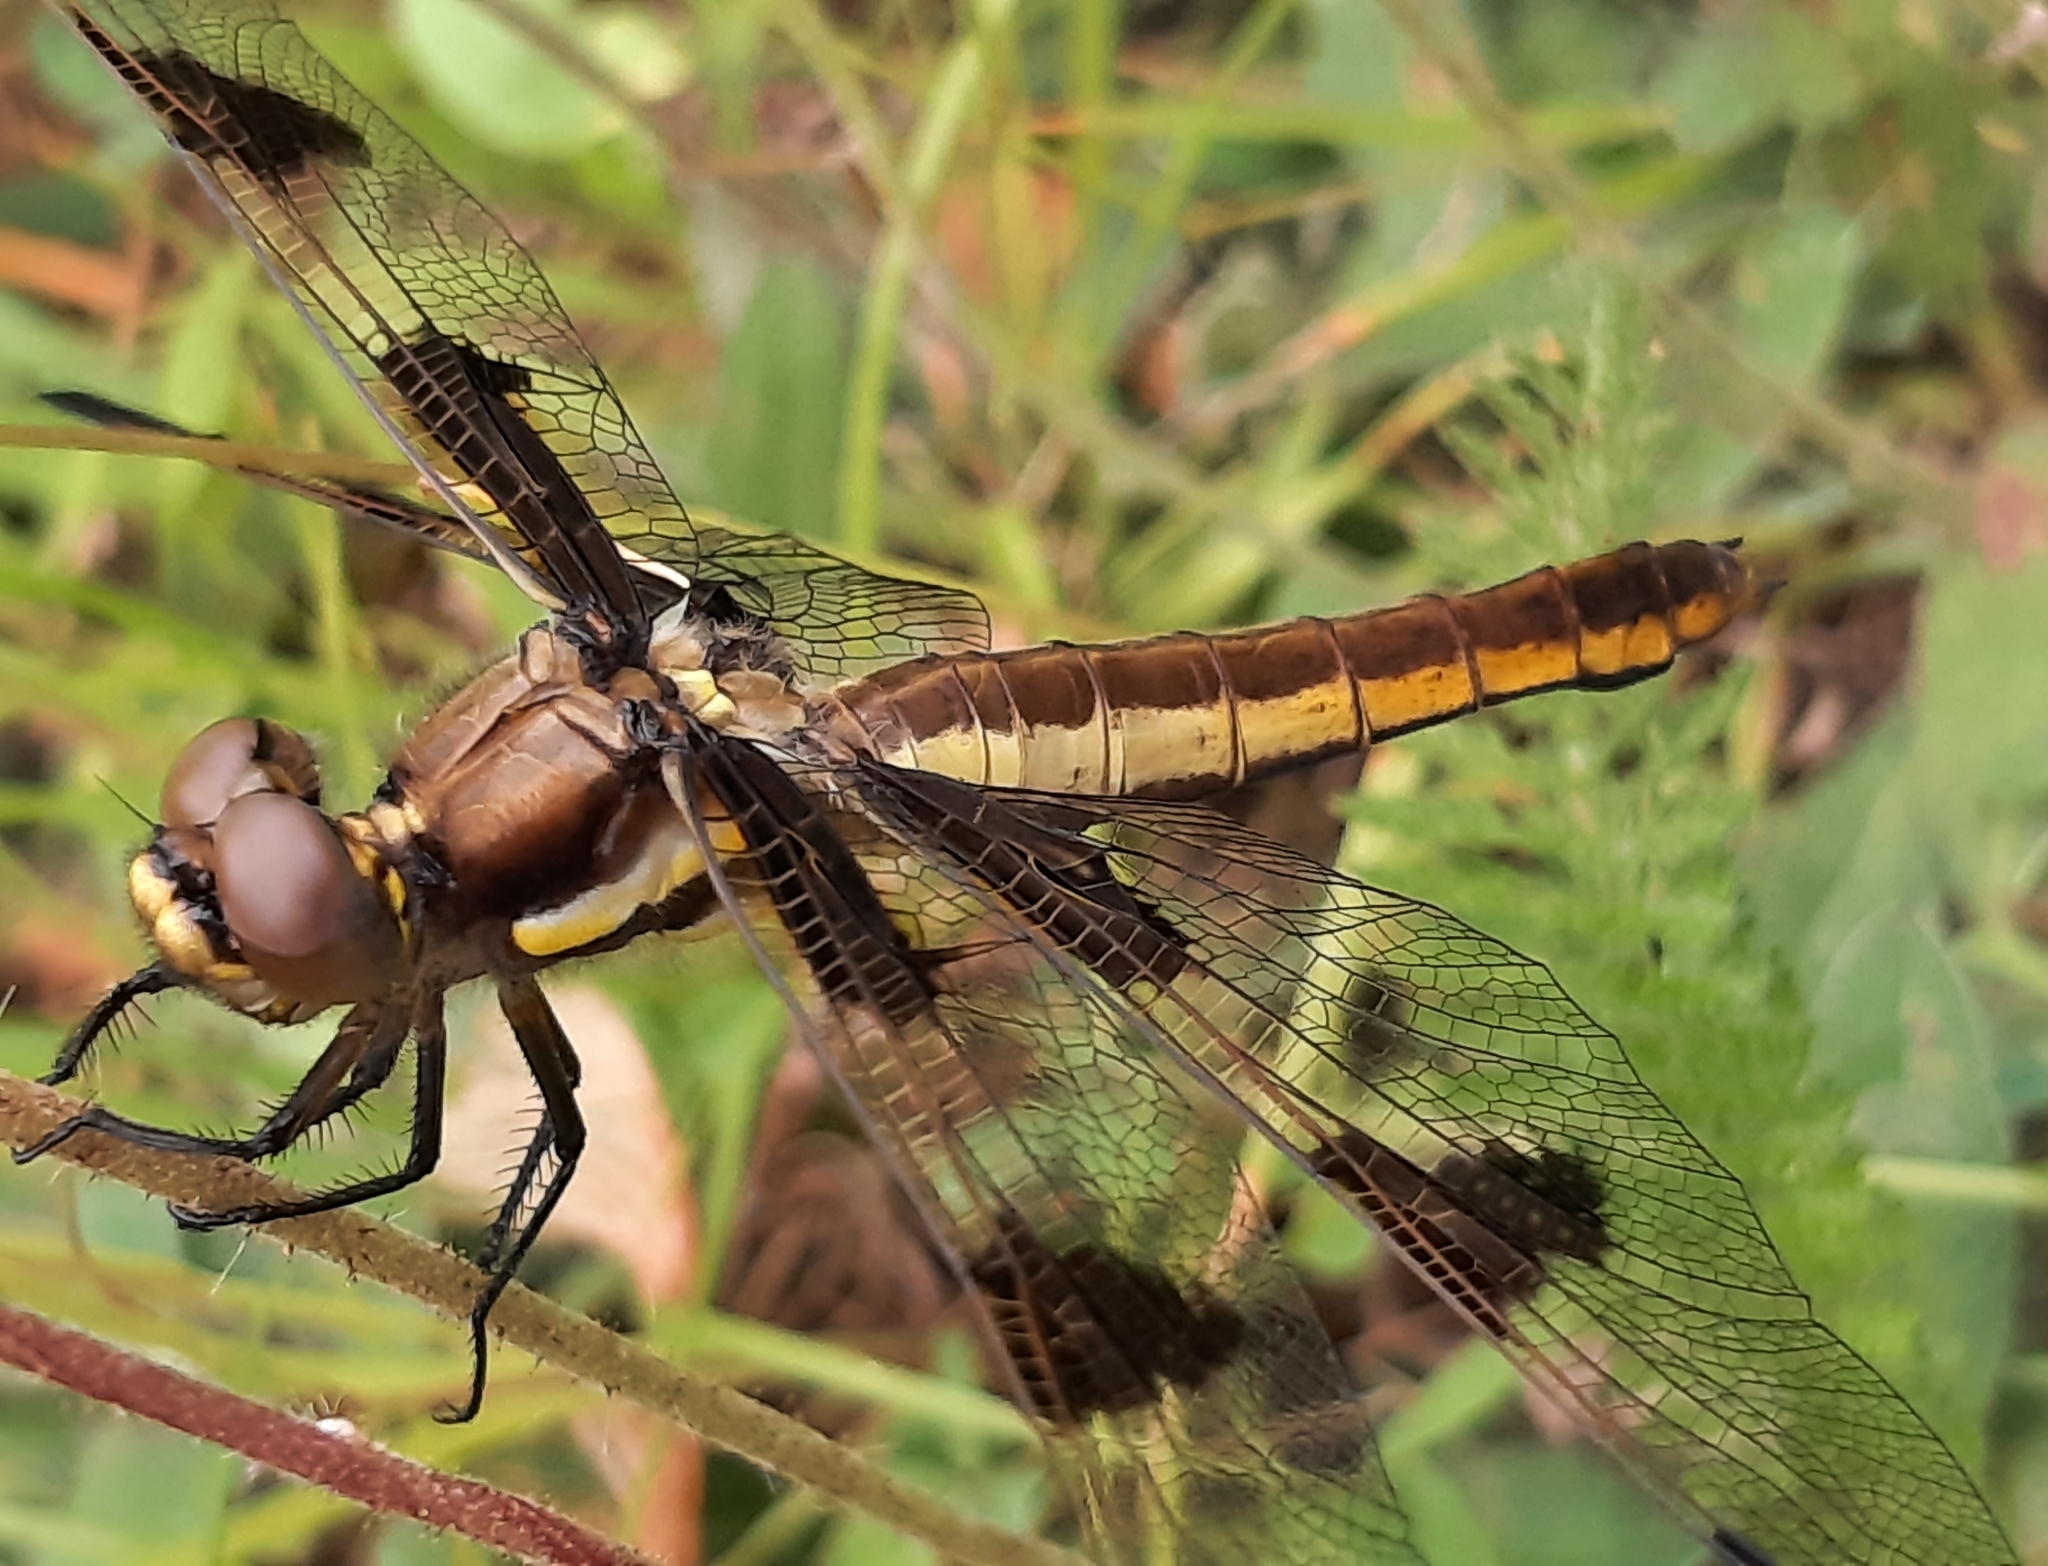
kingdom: Animalia
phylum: Arthropoda
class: Insecta
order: Odonata
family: Libellulidae
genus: Libellula
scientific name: Libellula pulchella
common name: Twelve-spotted skimmer
